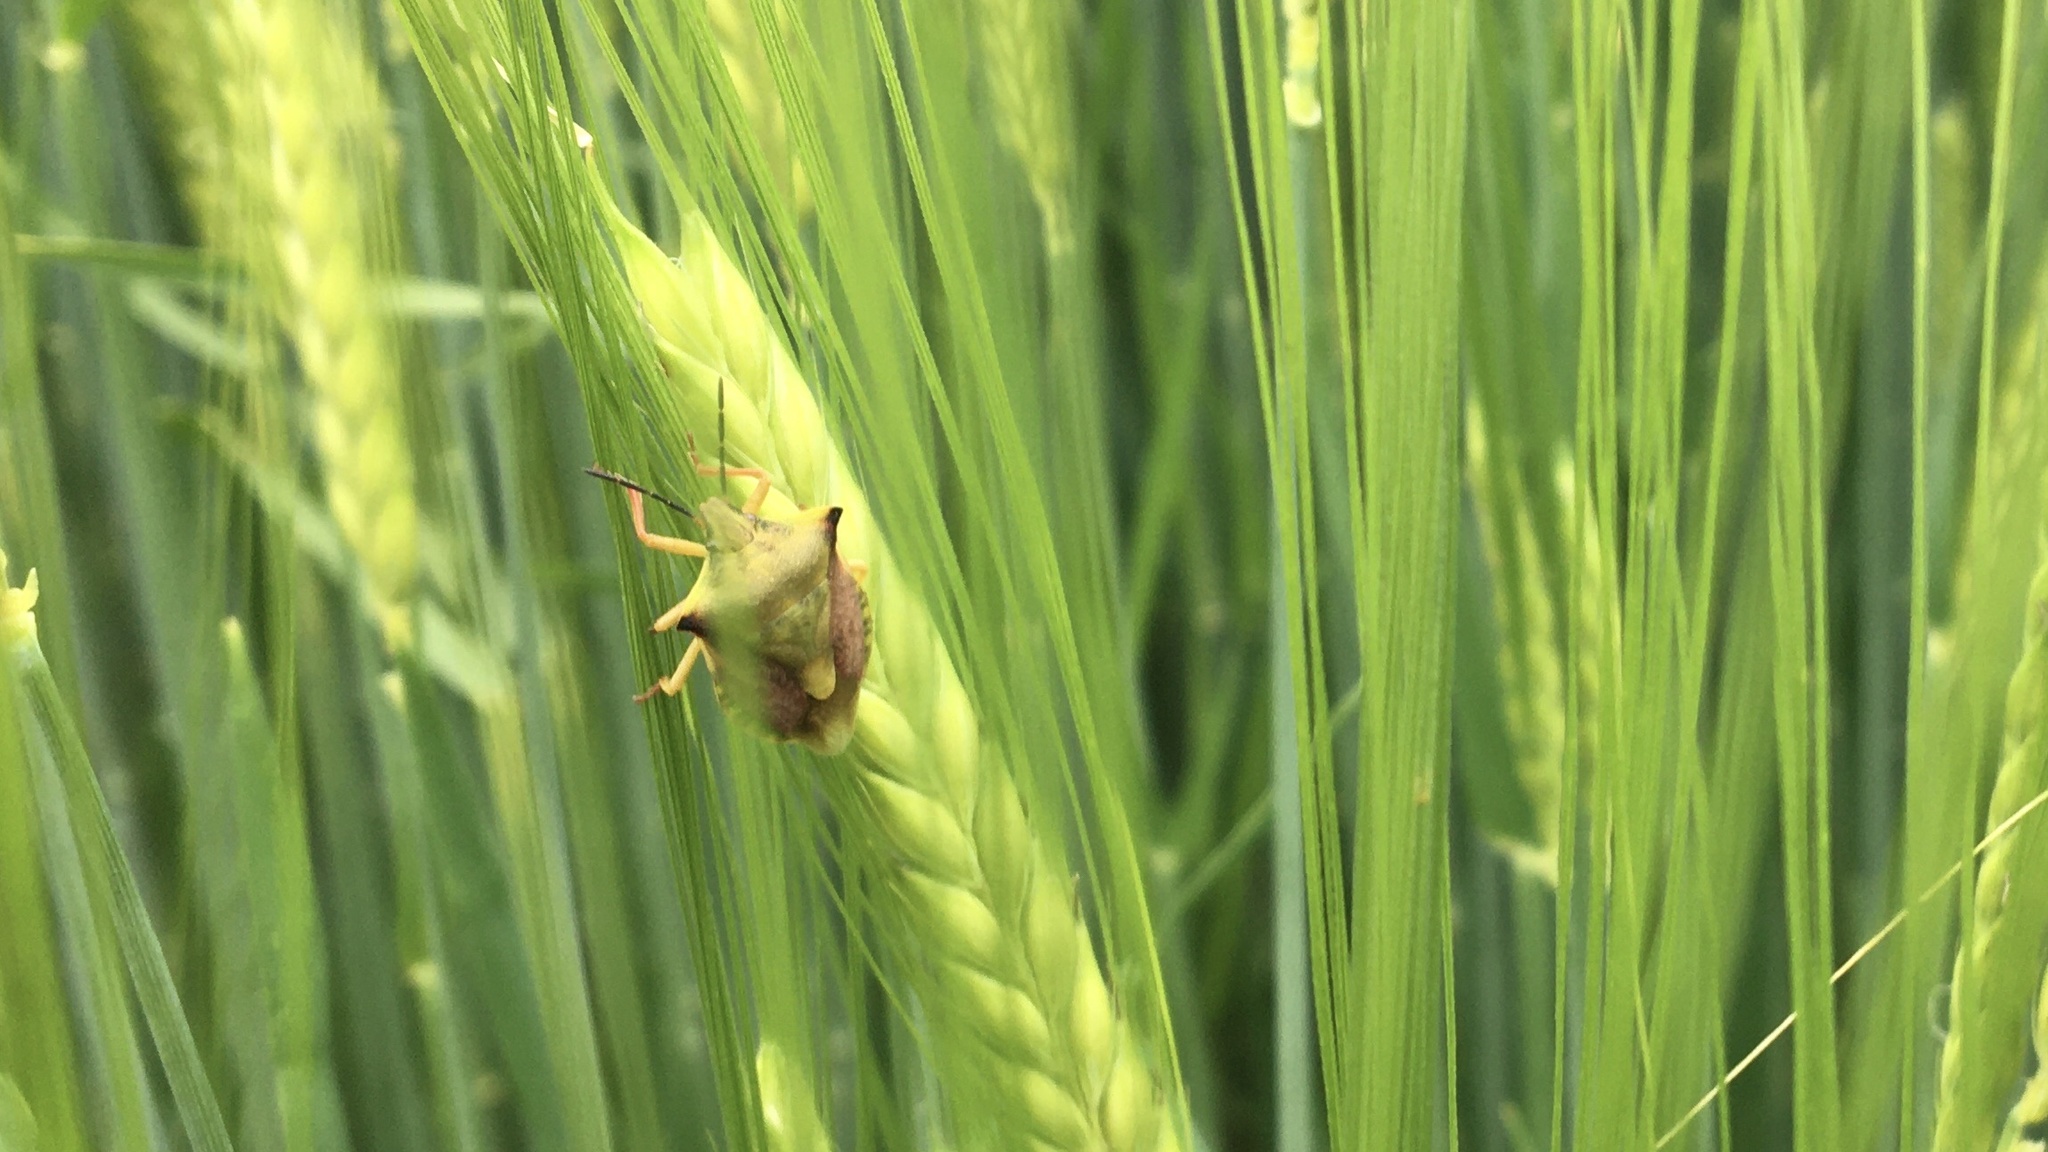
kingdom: Animalia
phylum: Arthropoda
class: Insecta
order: Hemiptera
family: Pentatomidae
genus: Carpocoris
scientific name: Carpocoris fuscispinus
